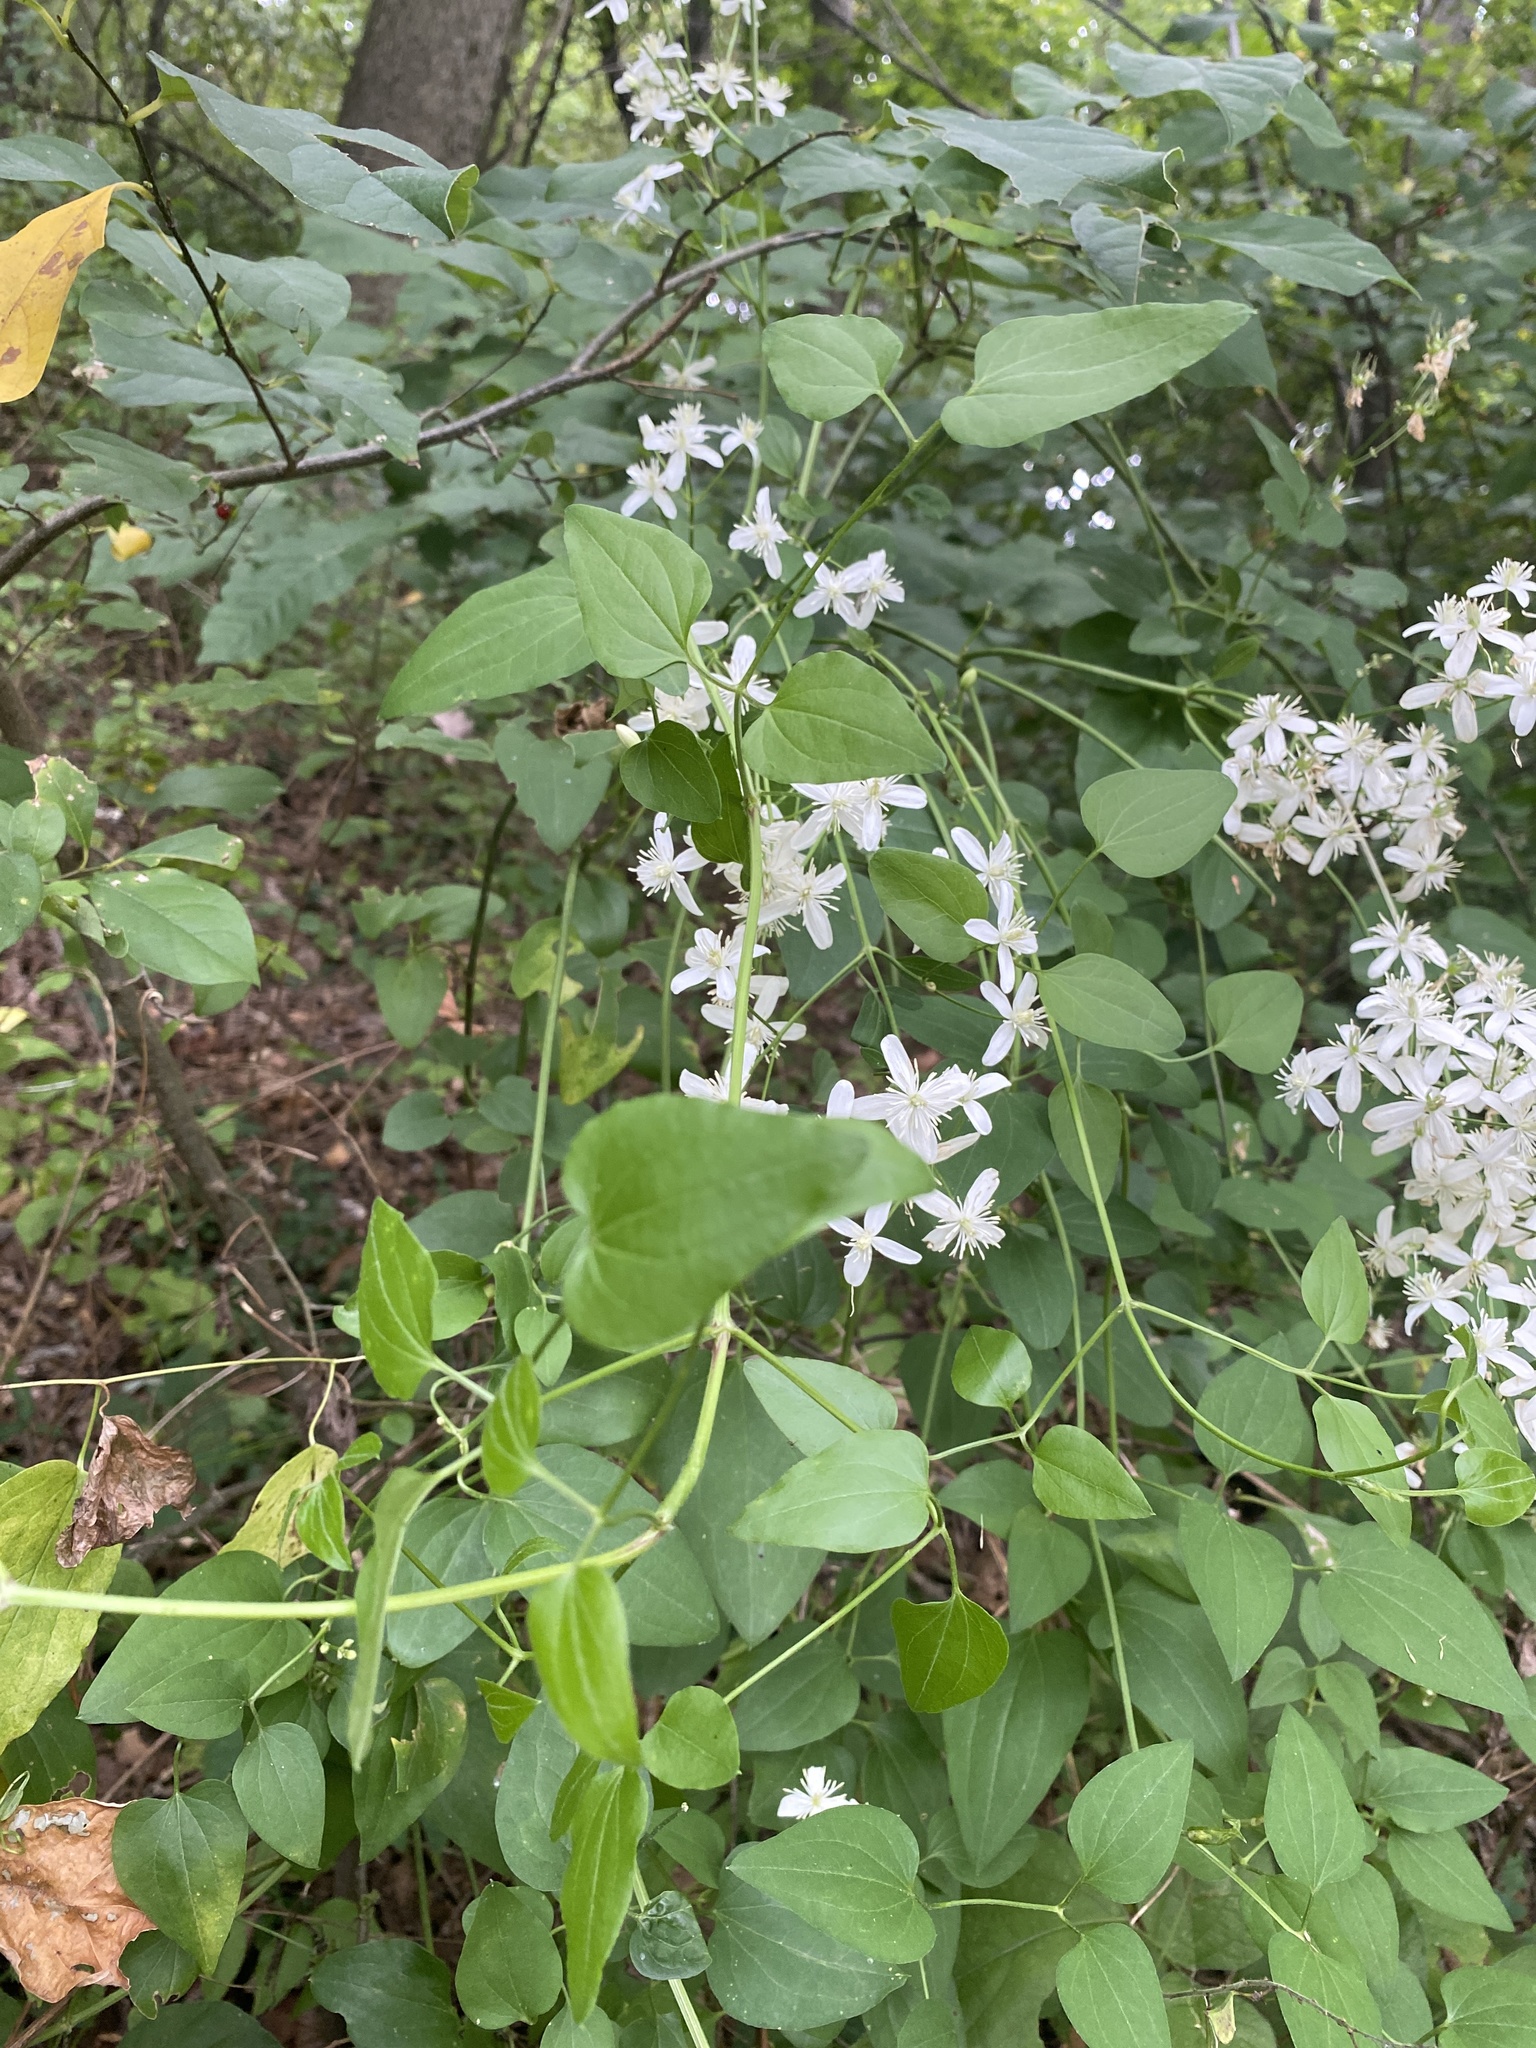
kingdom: Plantae
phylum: Tracheophyta
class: Magnoliopsida
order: Ranunculales
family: Ranunculaceae
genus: Clematis
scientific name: Clematis terniflora
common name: Sweet autumn clematis
